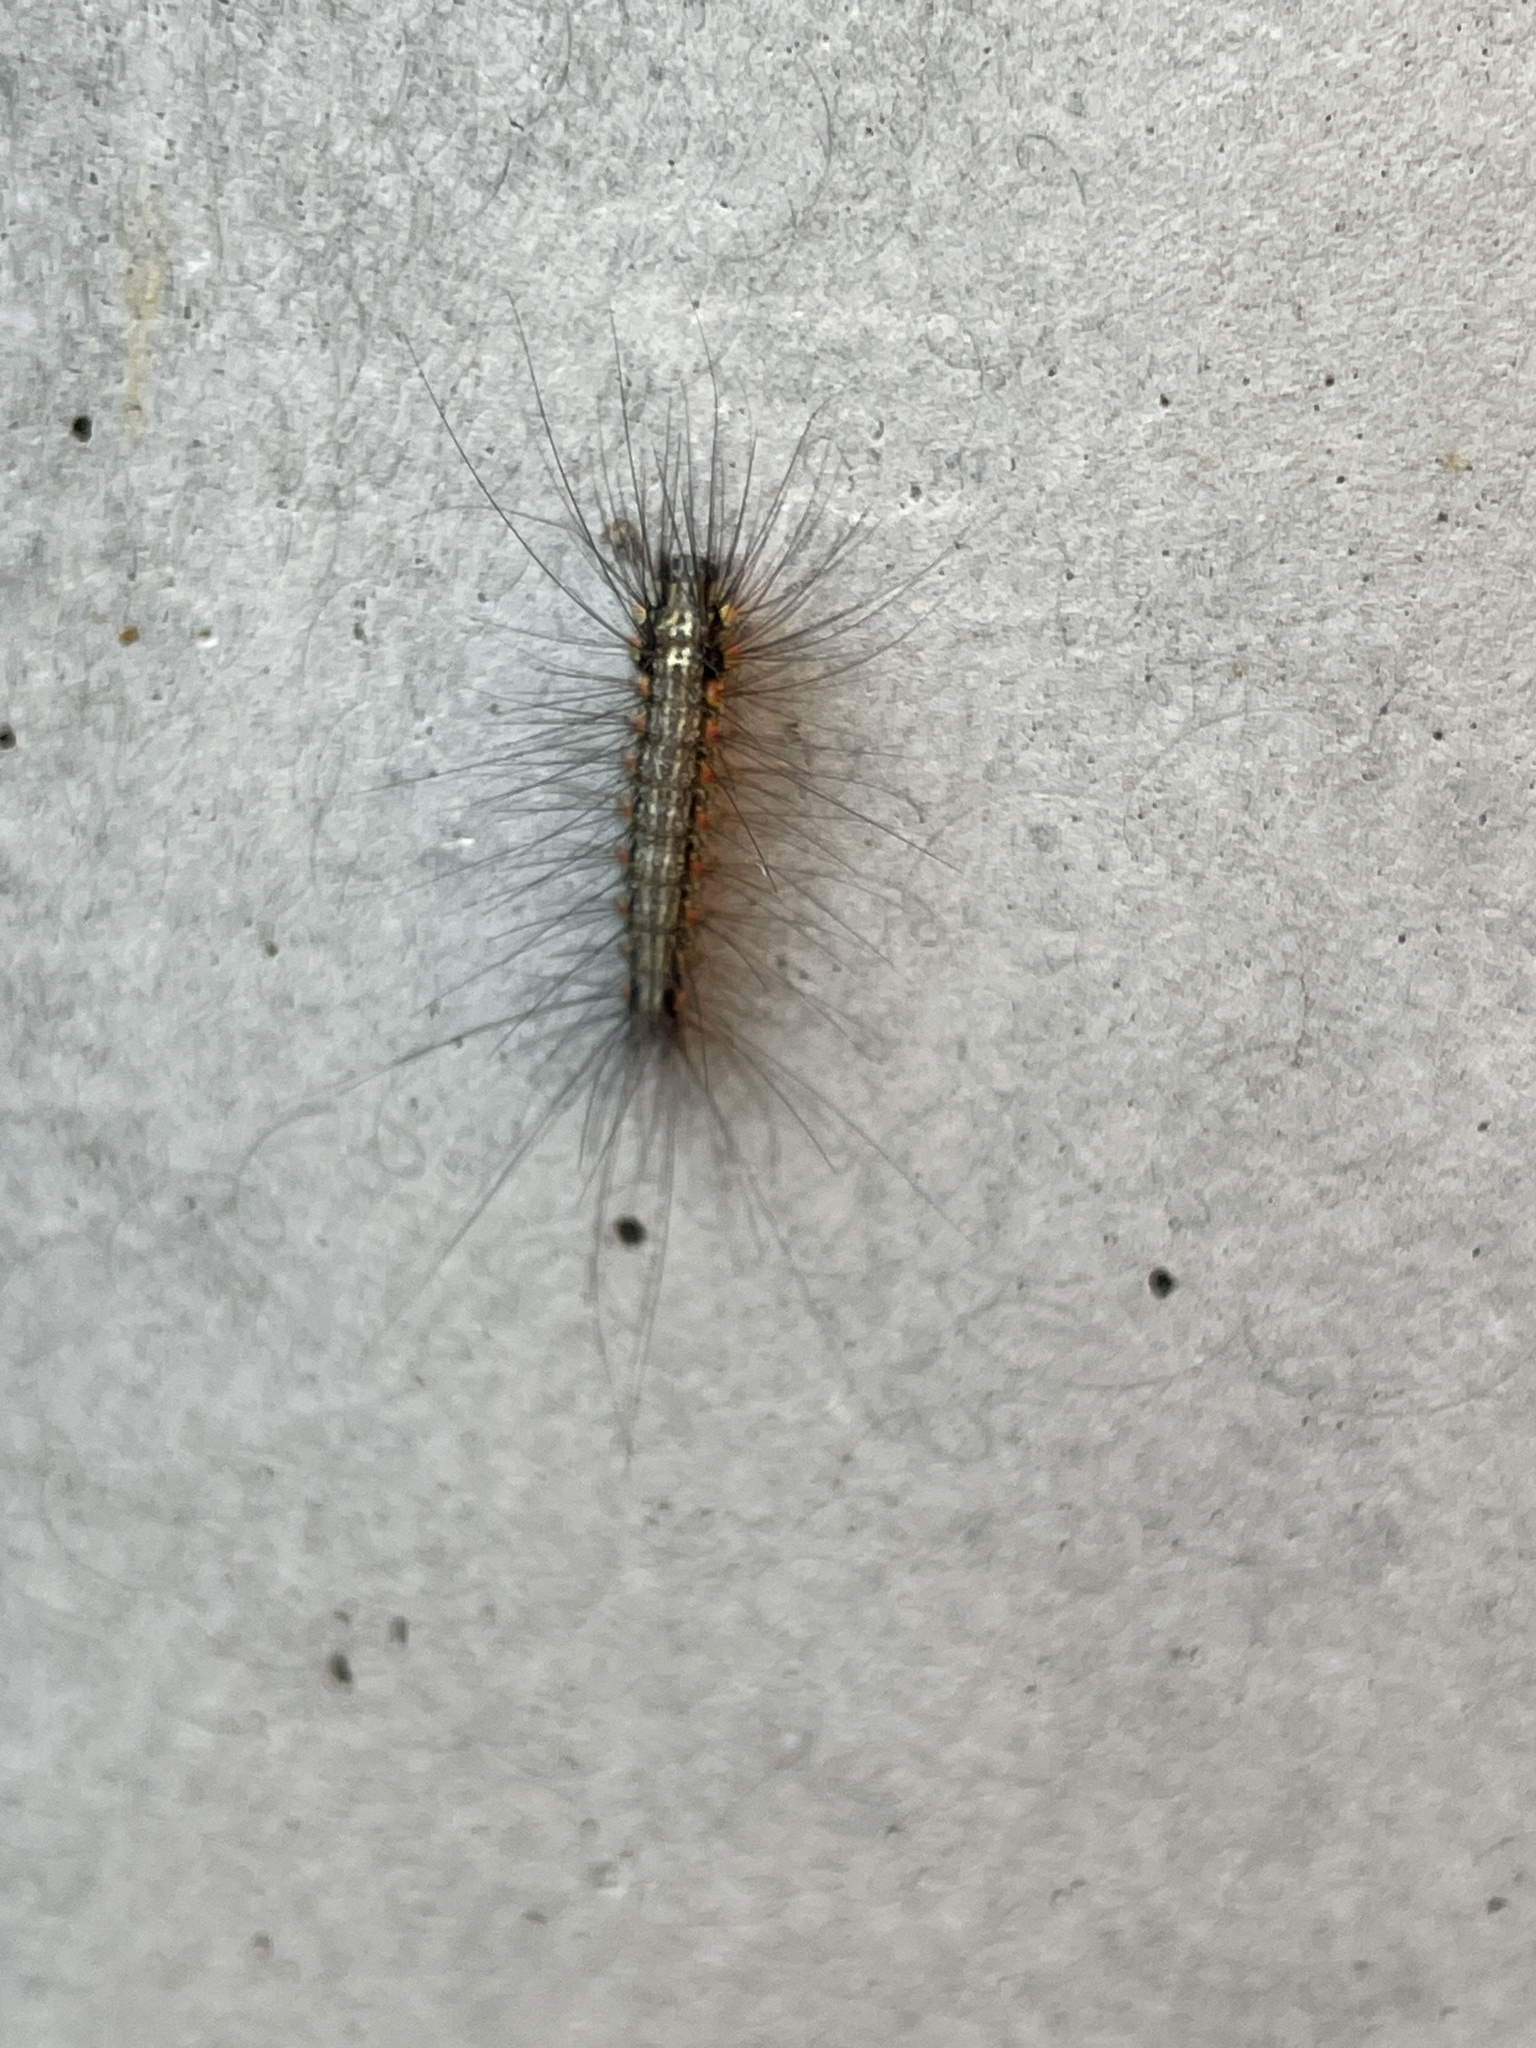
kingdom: Animalia
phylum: Arthropoda
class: Insecta
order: Lepidoptera
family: Erebidae
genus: Anestia
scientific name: Anestia
